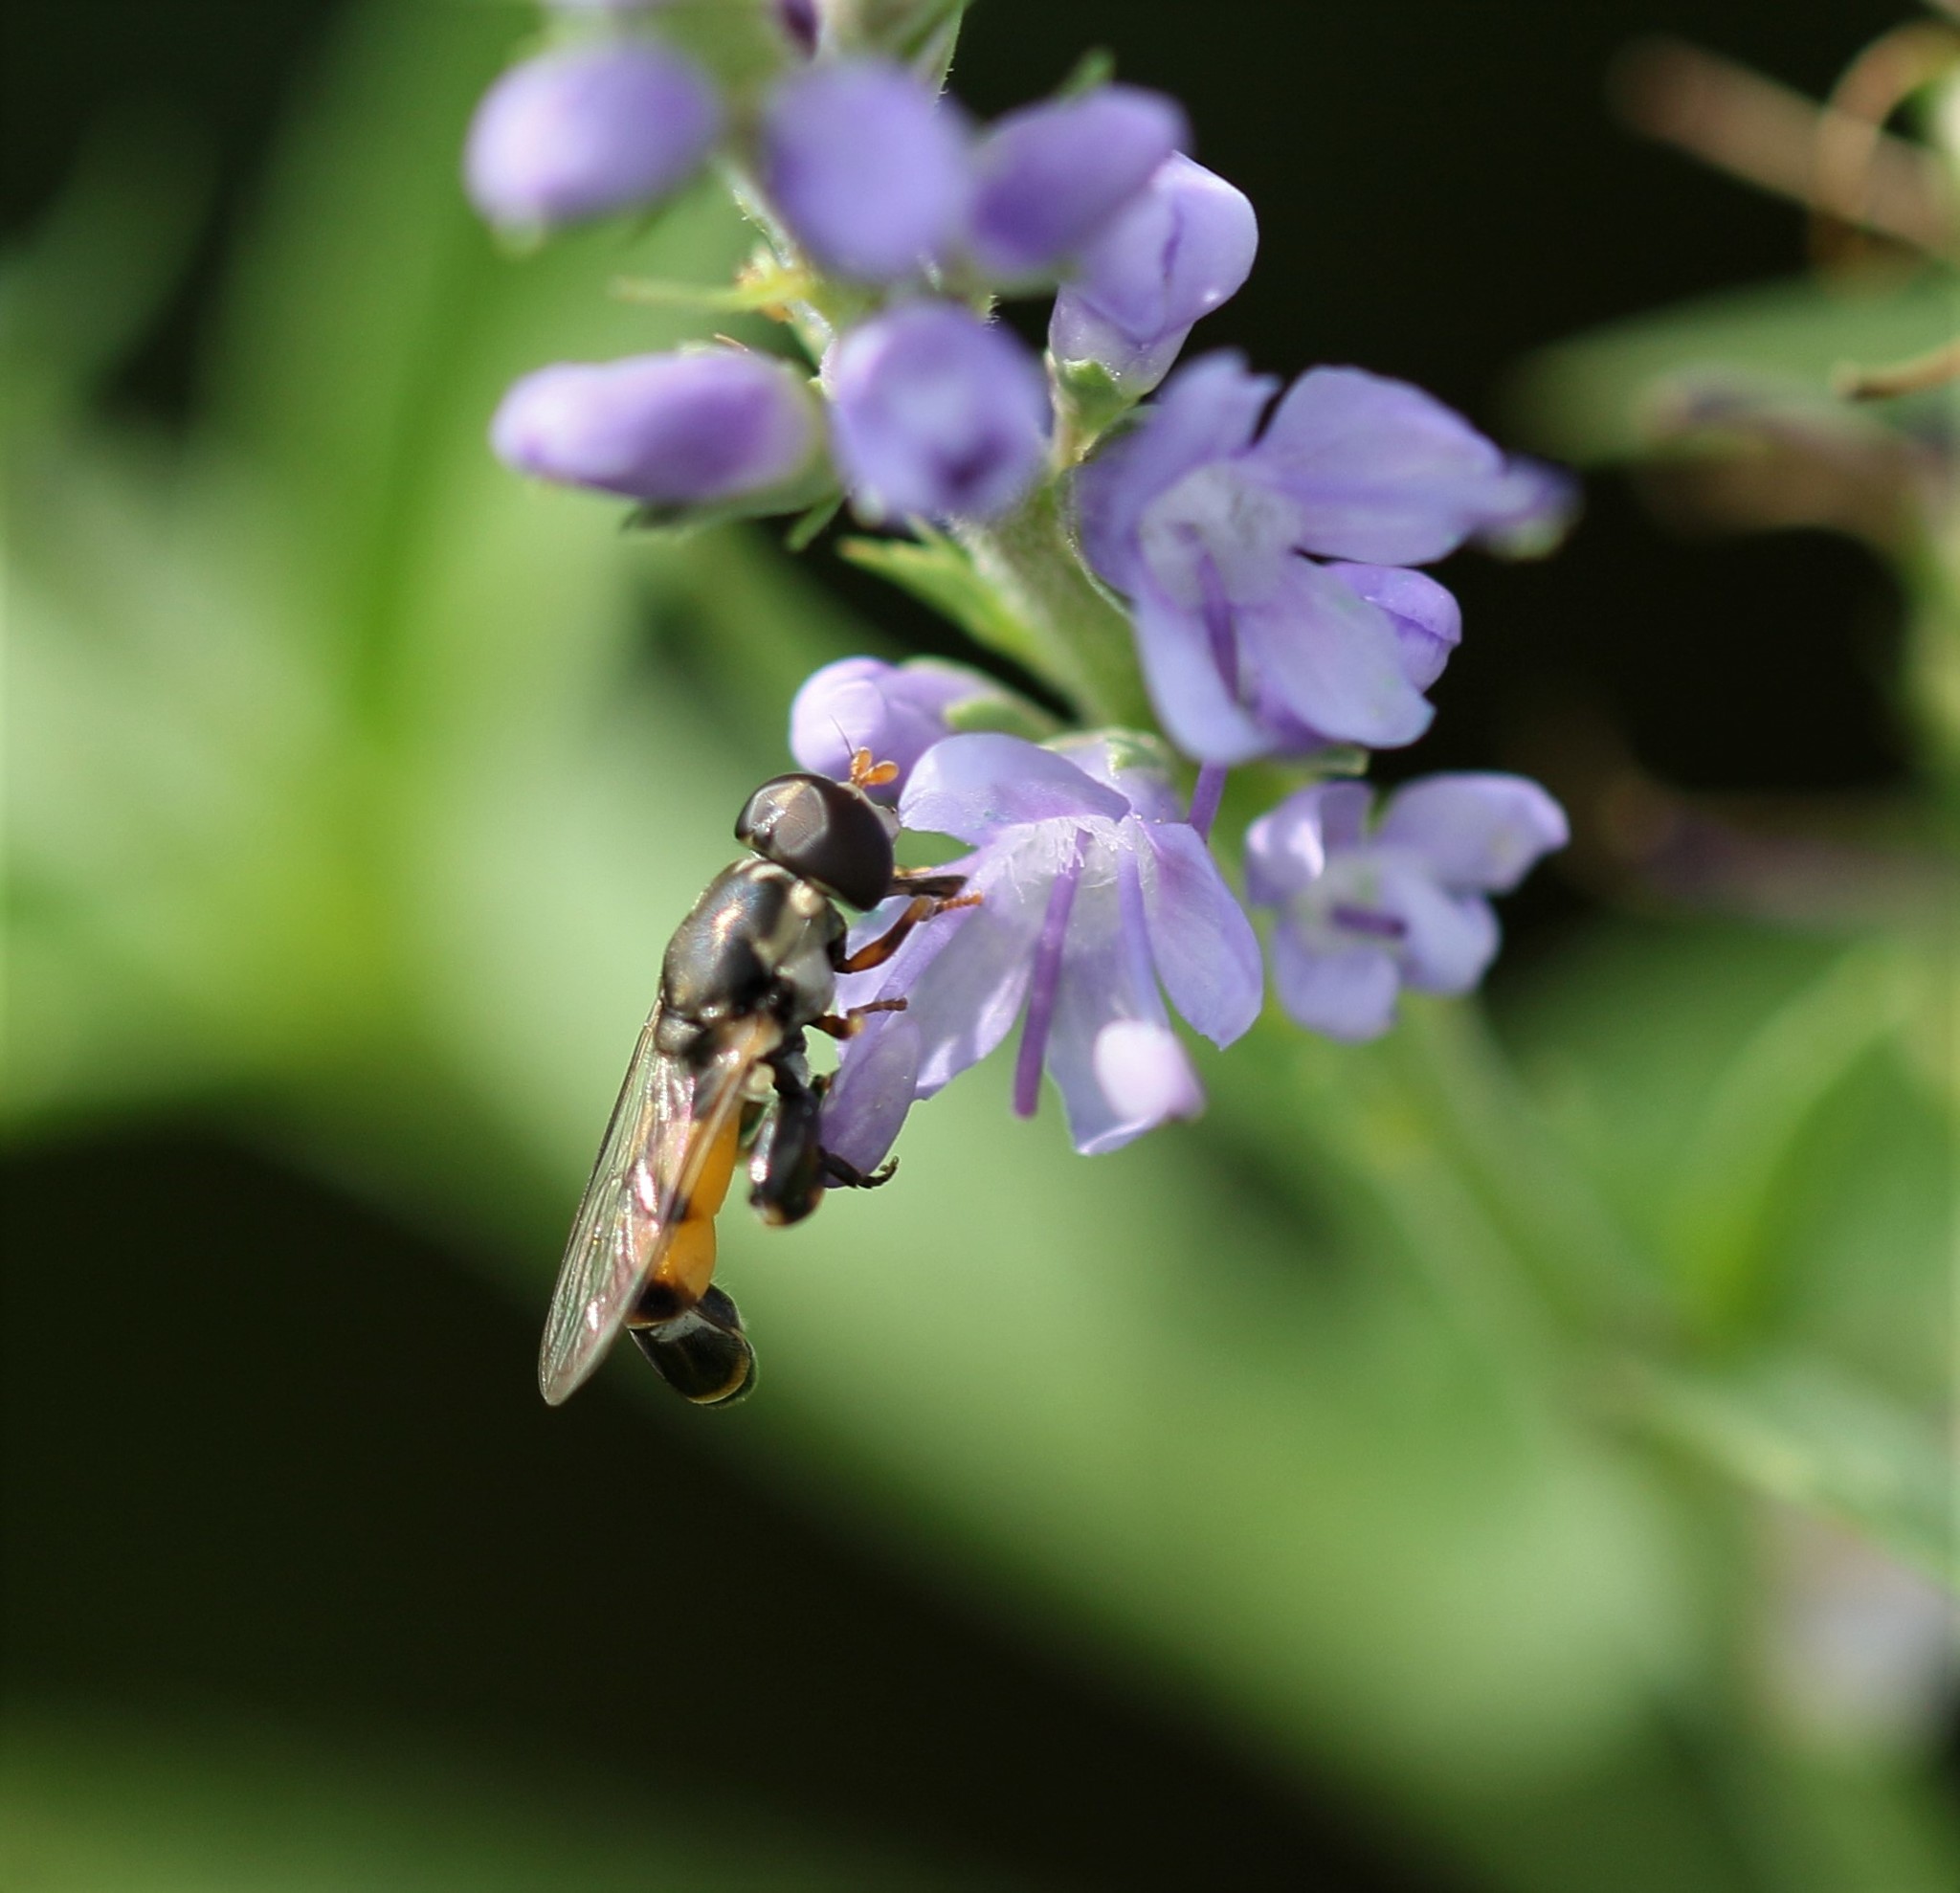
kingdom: Animalia
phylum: Arthropoda
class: Insecta
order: Diptera
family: Syrphidae
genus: Syritta
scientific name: Syritta pipiens
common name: Hover fly
